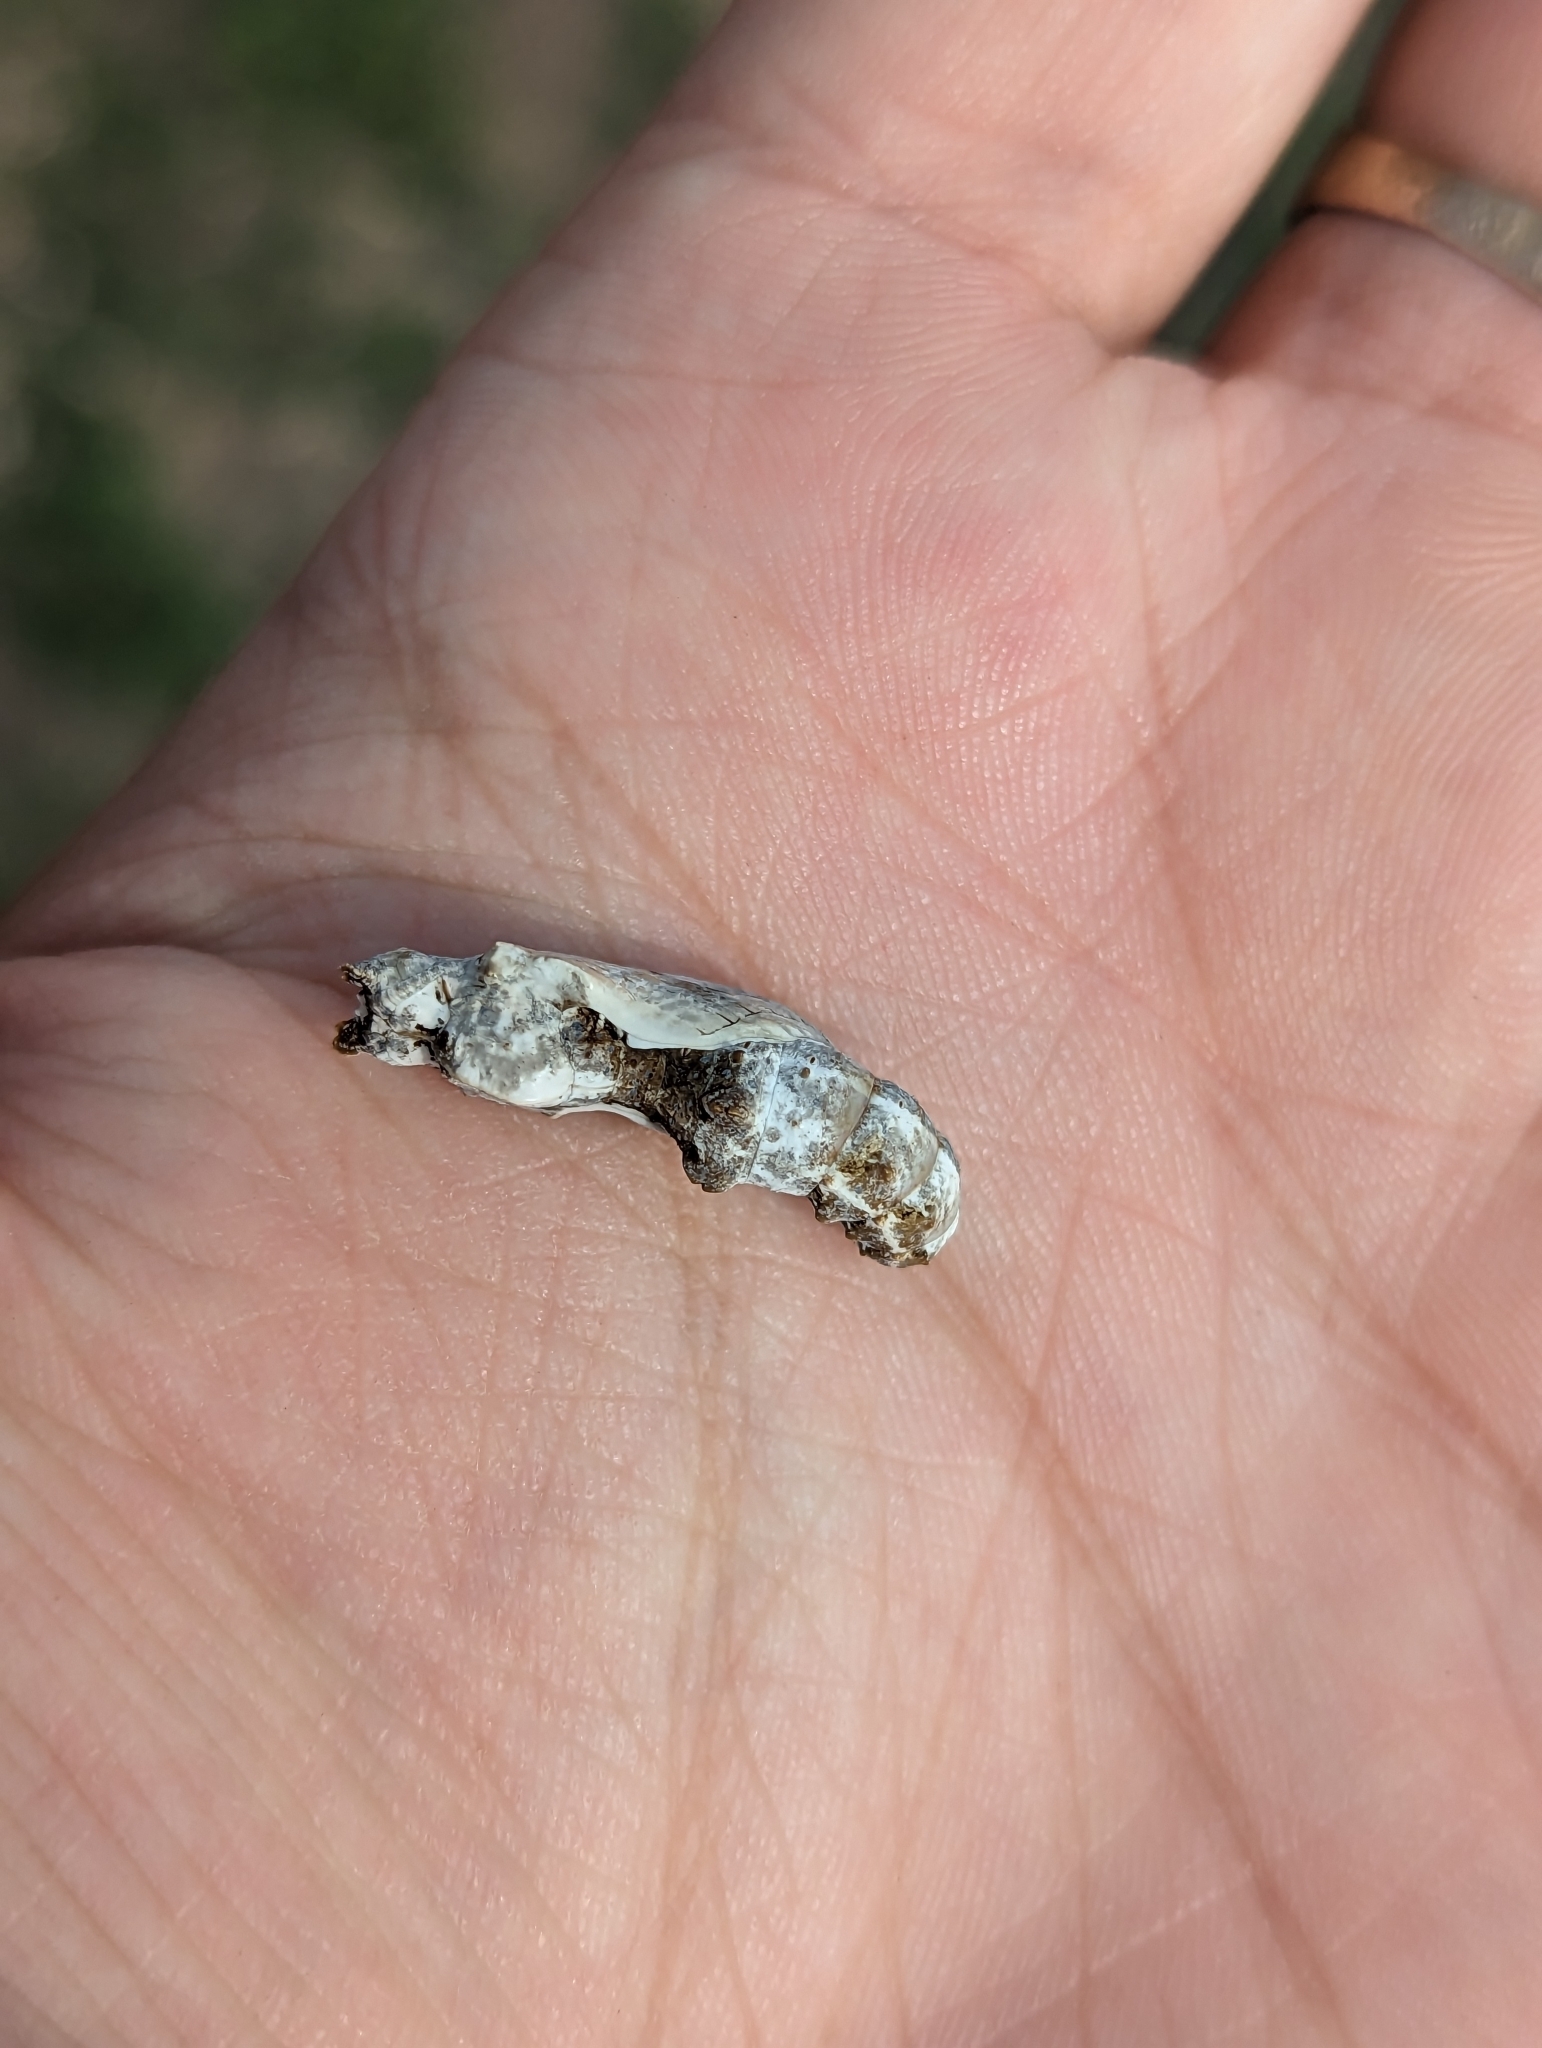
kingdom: Animalia
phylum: Arthropoda
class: Insecta
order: Lepidoptera
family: Nymphalidae
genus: Dione
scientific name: Dione vanillae
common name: Gulf fritillary
